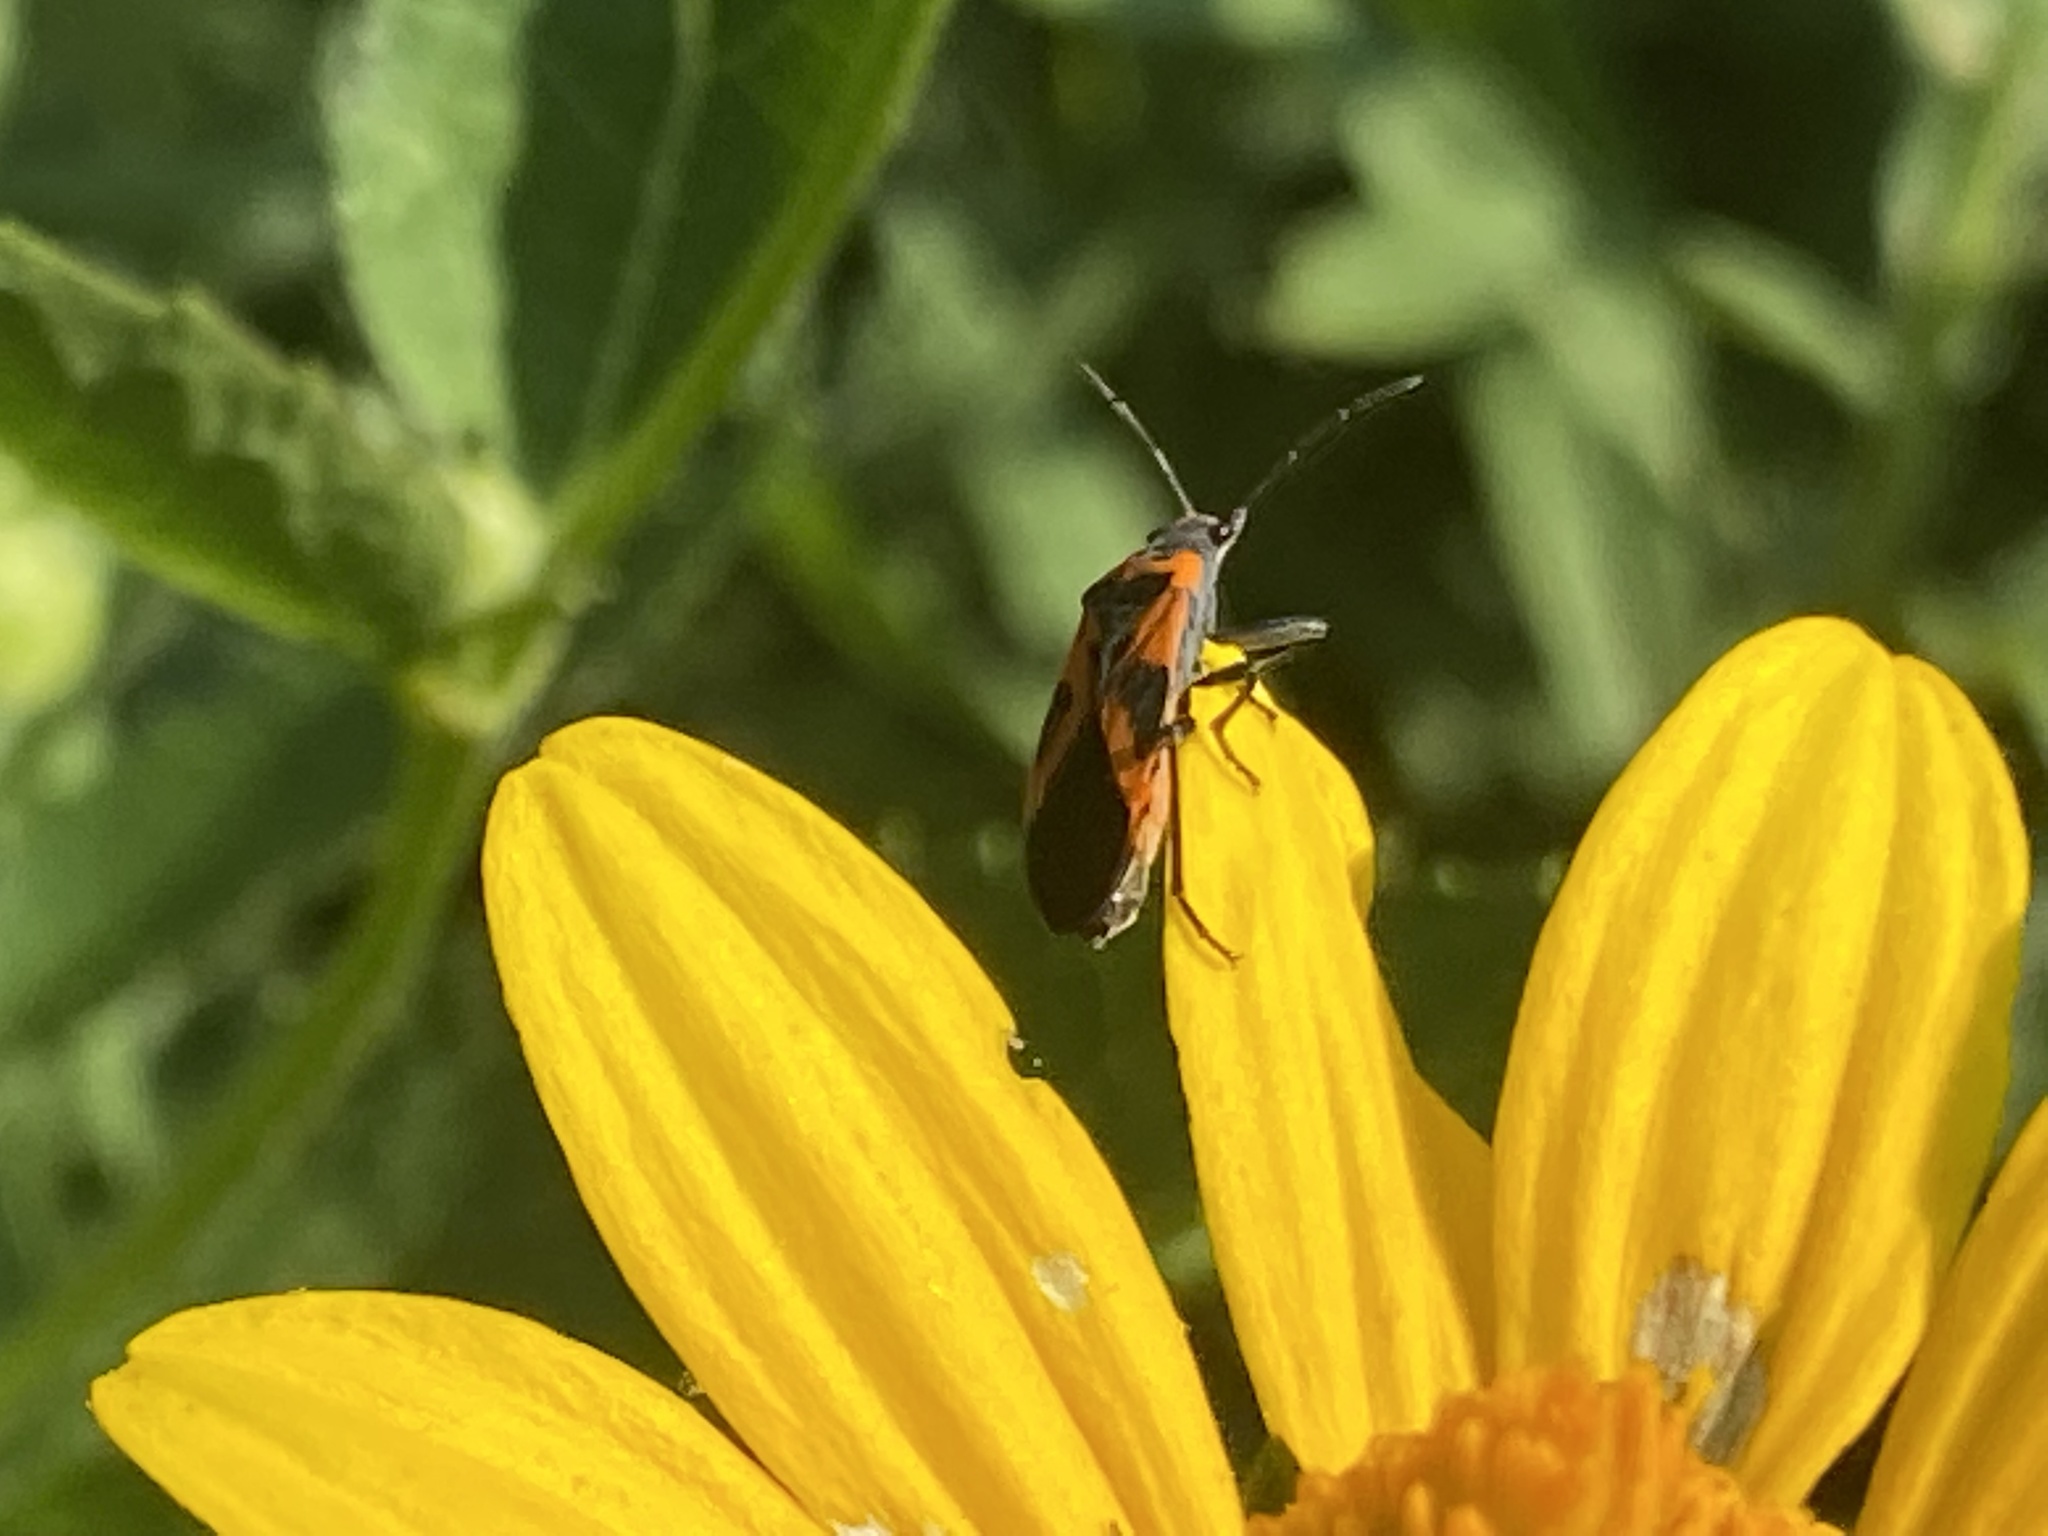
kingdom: Animalia
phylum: Arthropoda
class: Insecta
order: Hemiptera
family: Lygaeidae
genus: Lygaeus
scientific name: Lygaeus turcicus
